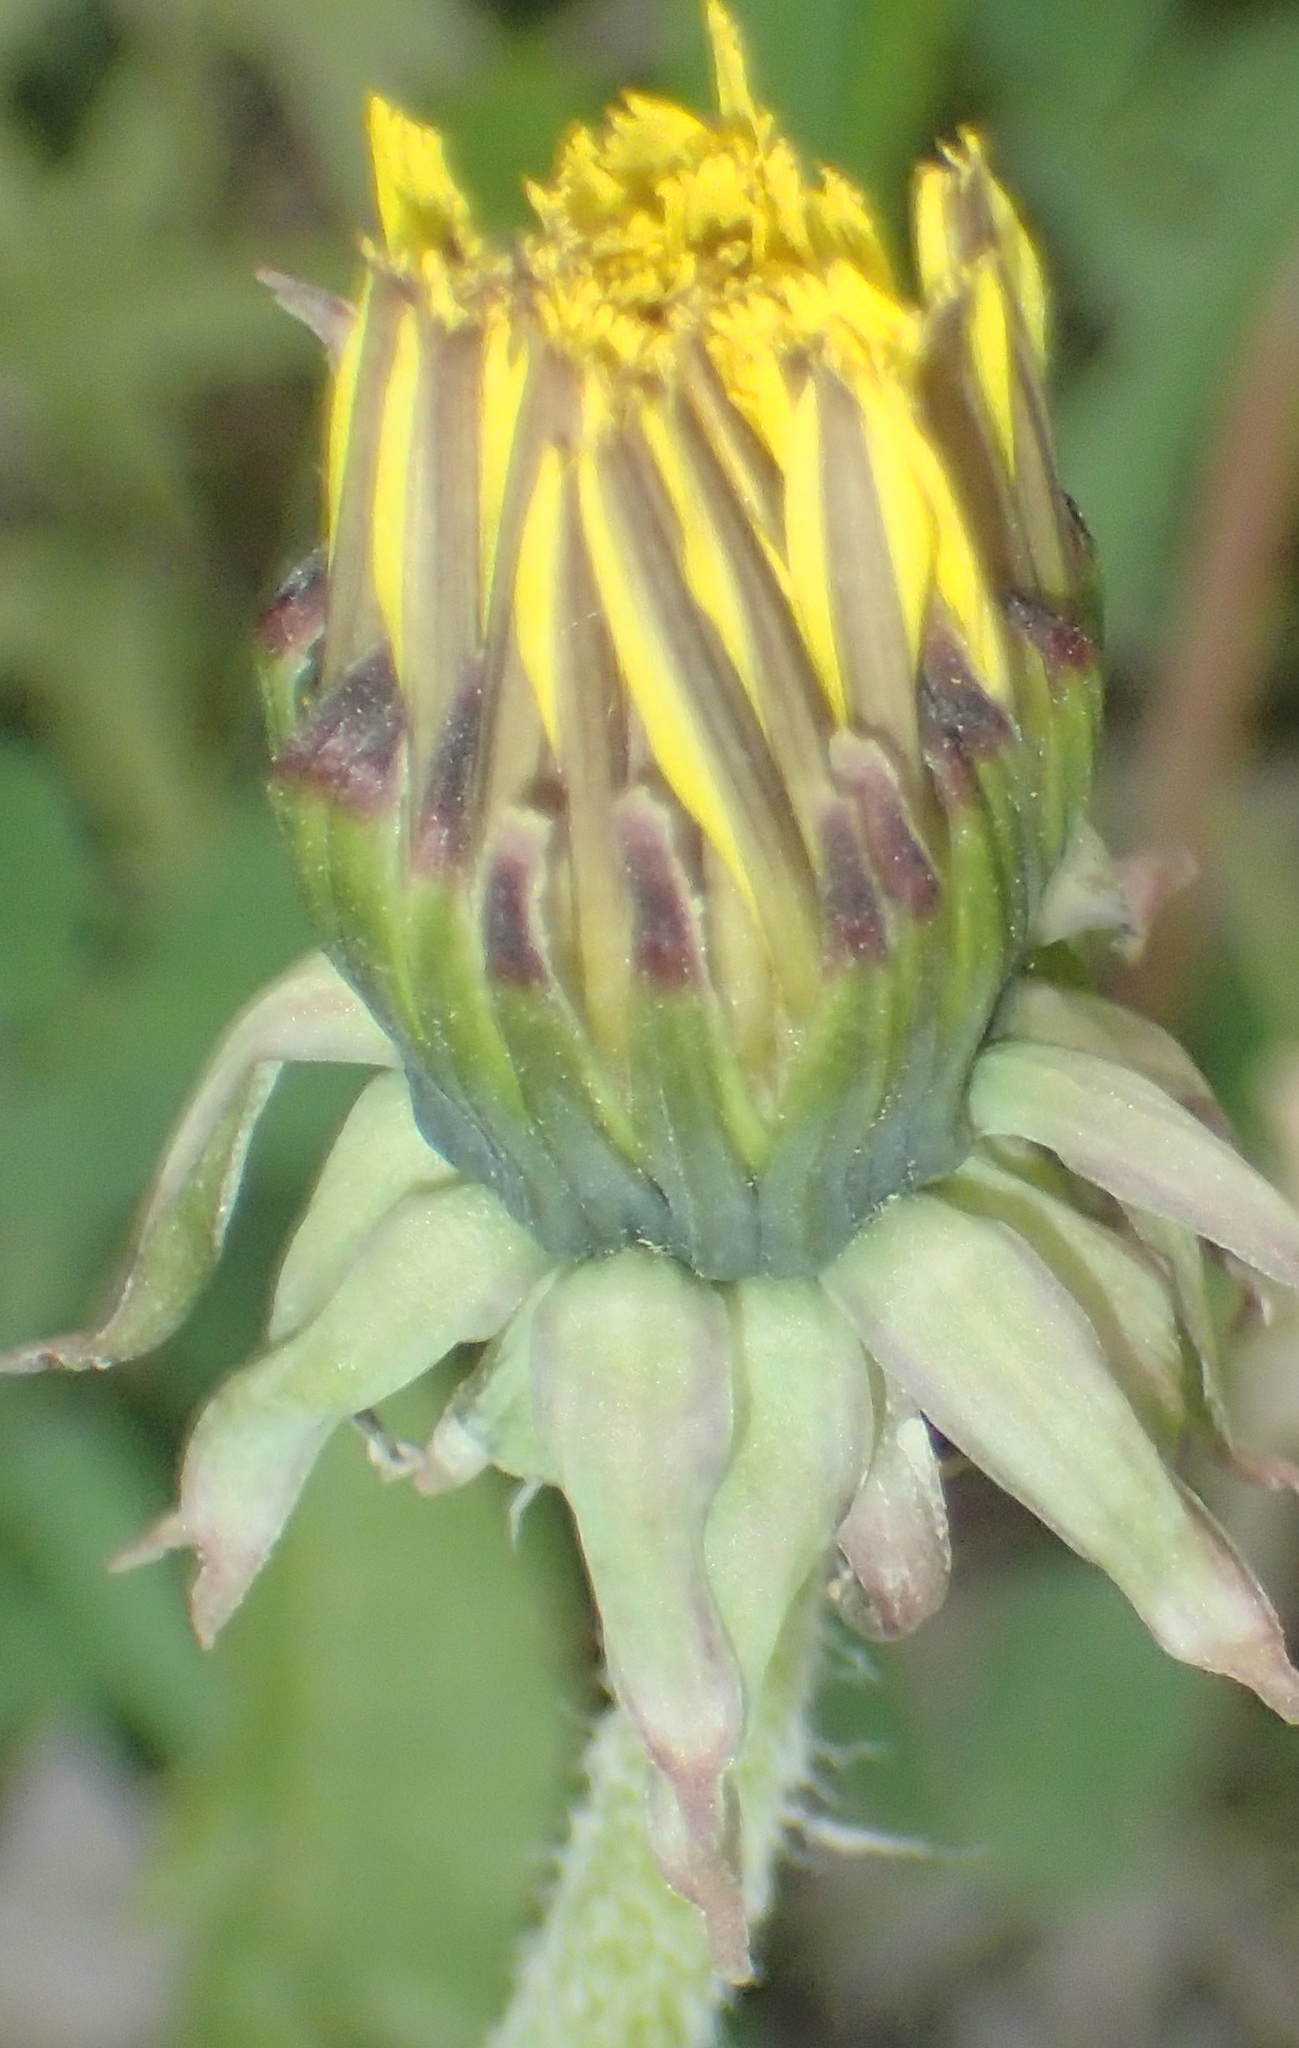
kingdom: Plantae
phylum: Tracheophyta
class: Magnoliopsida
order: Asterales
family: Asteraceae
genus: Taraxacum
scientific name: Taraxacum officinale
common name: Common dandelion
